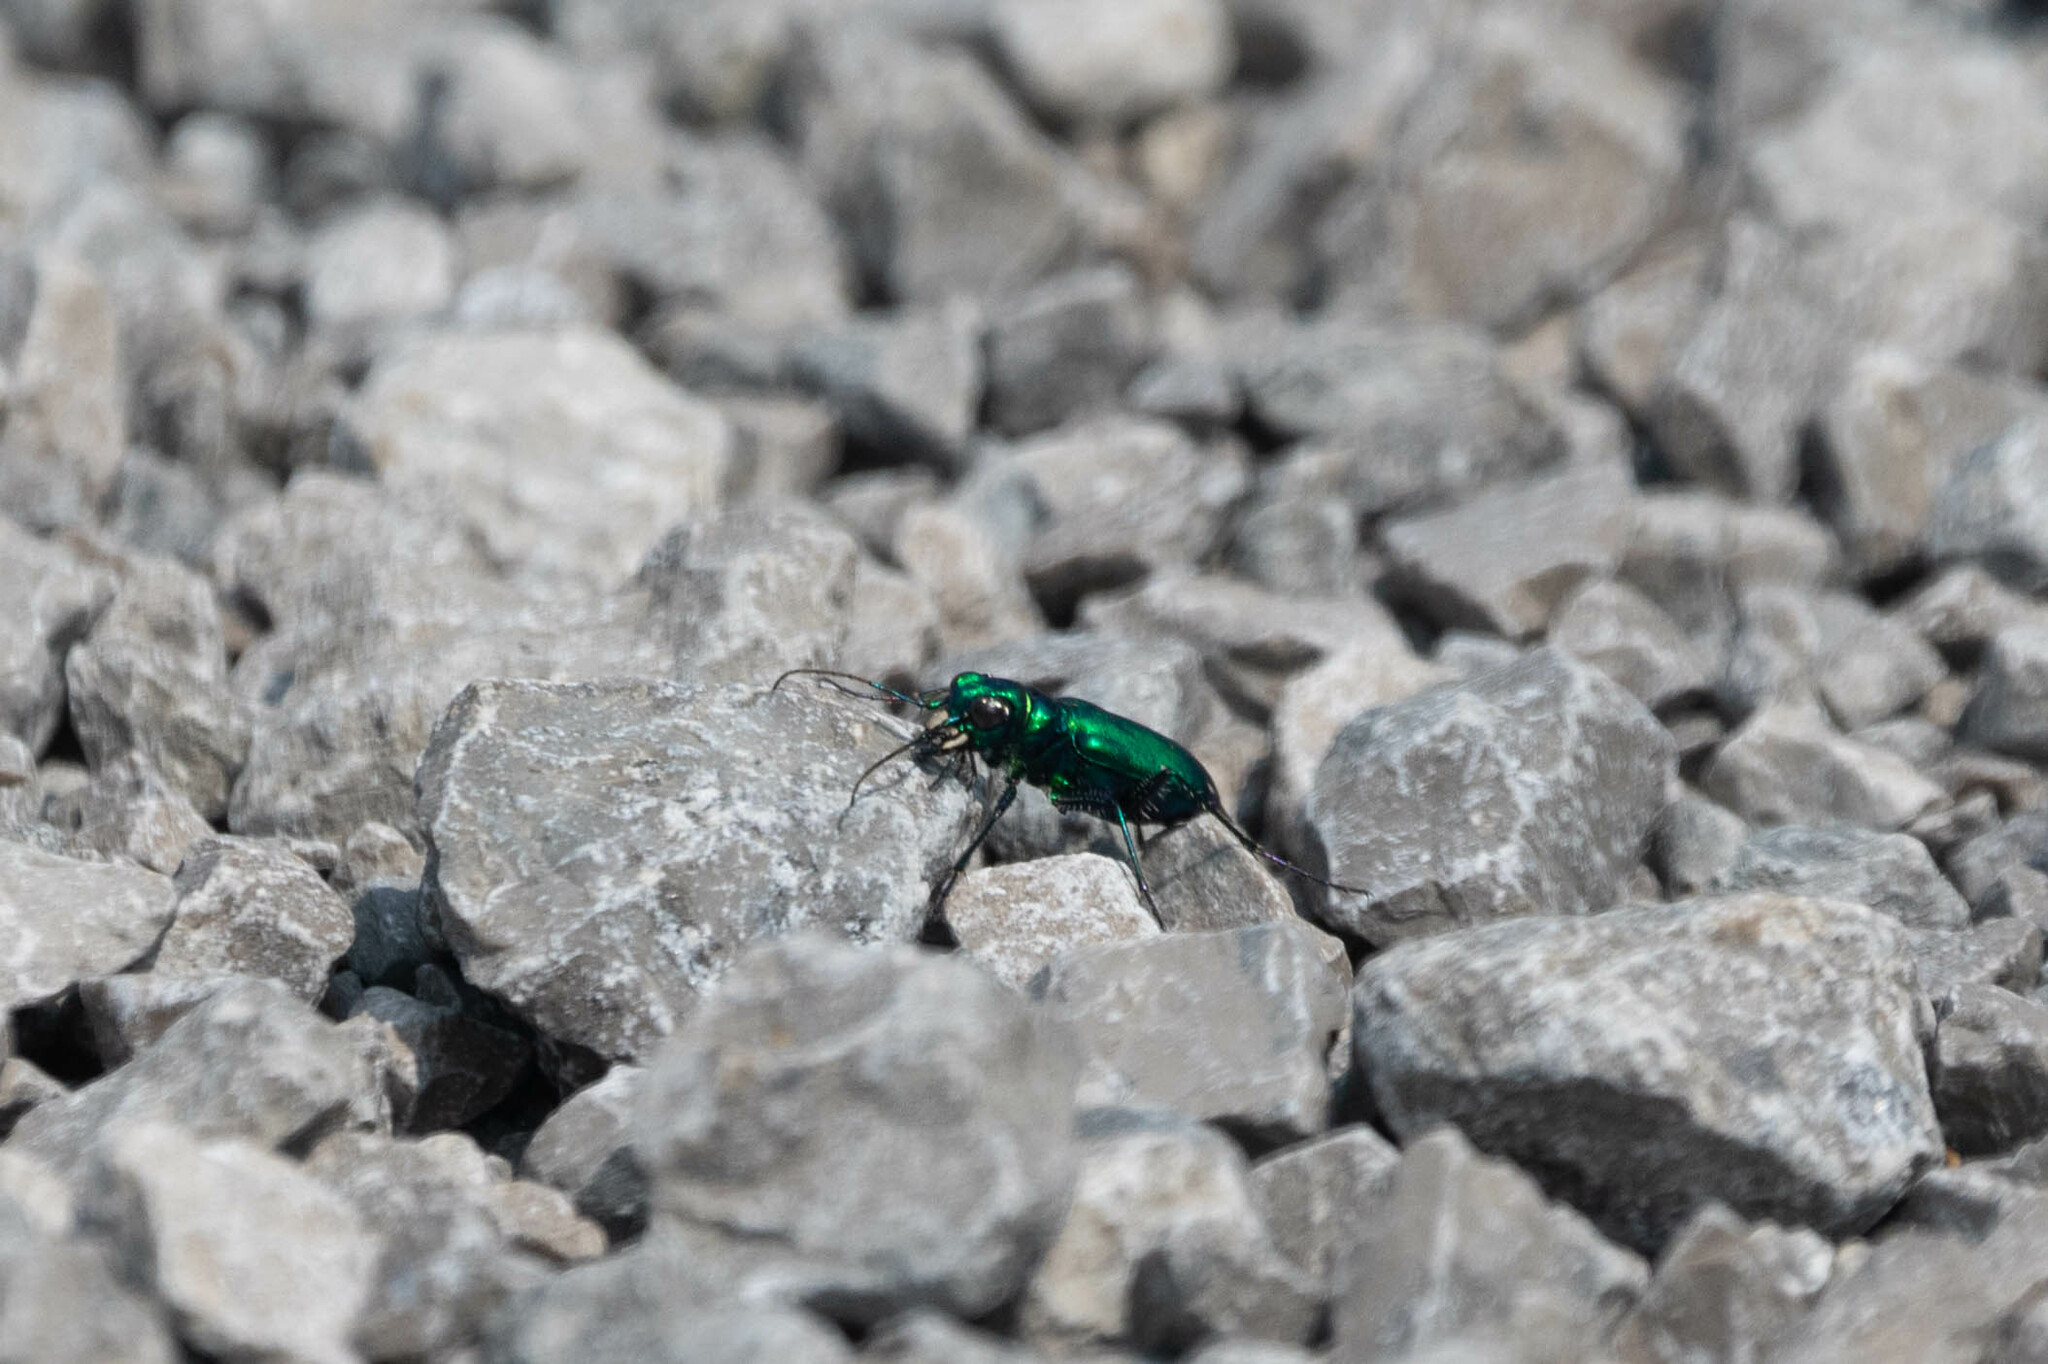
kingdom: Animalia
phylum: Arthropoda
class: Insecta
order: Coleoptera
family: Carabidae
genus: Cicindela
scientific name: Cicindela sexguttata
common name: Six-spotted tiger beetle
